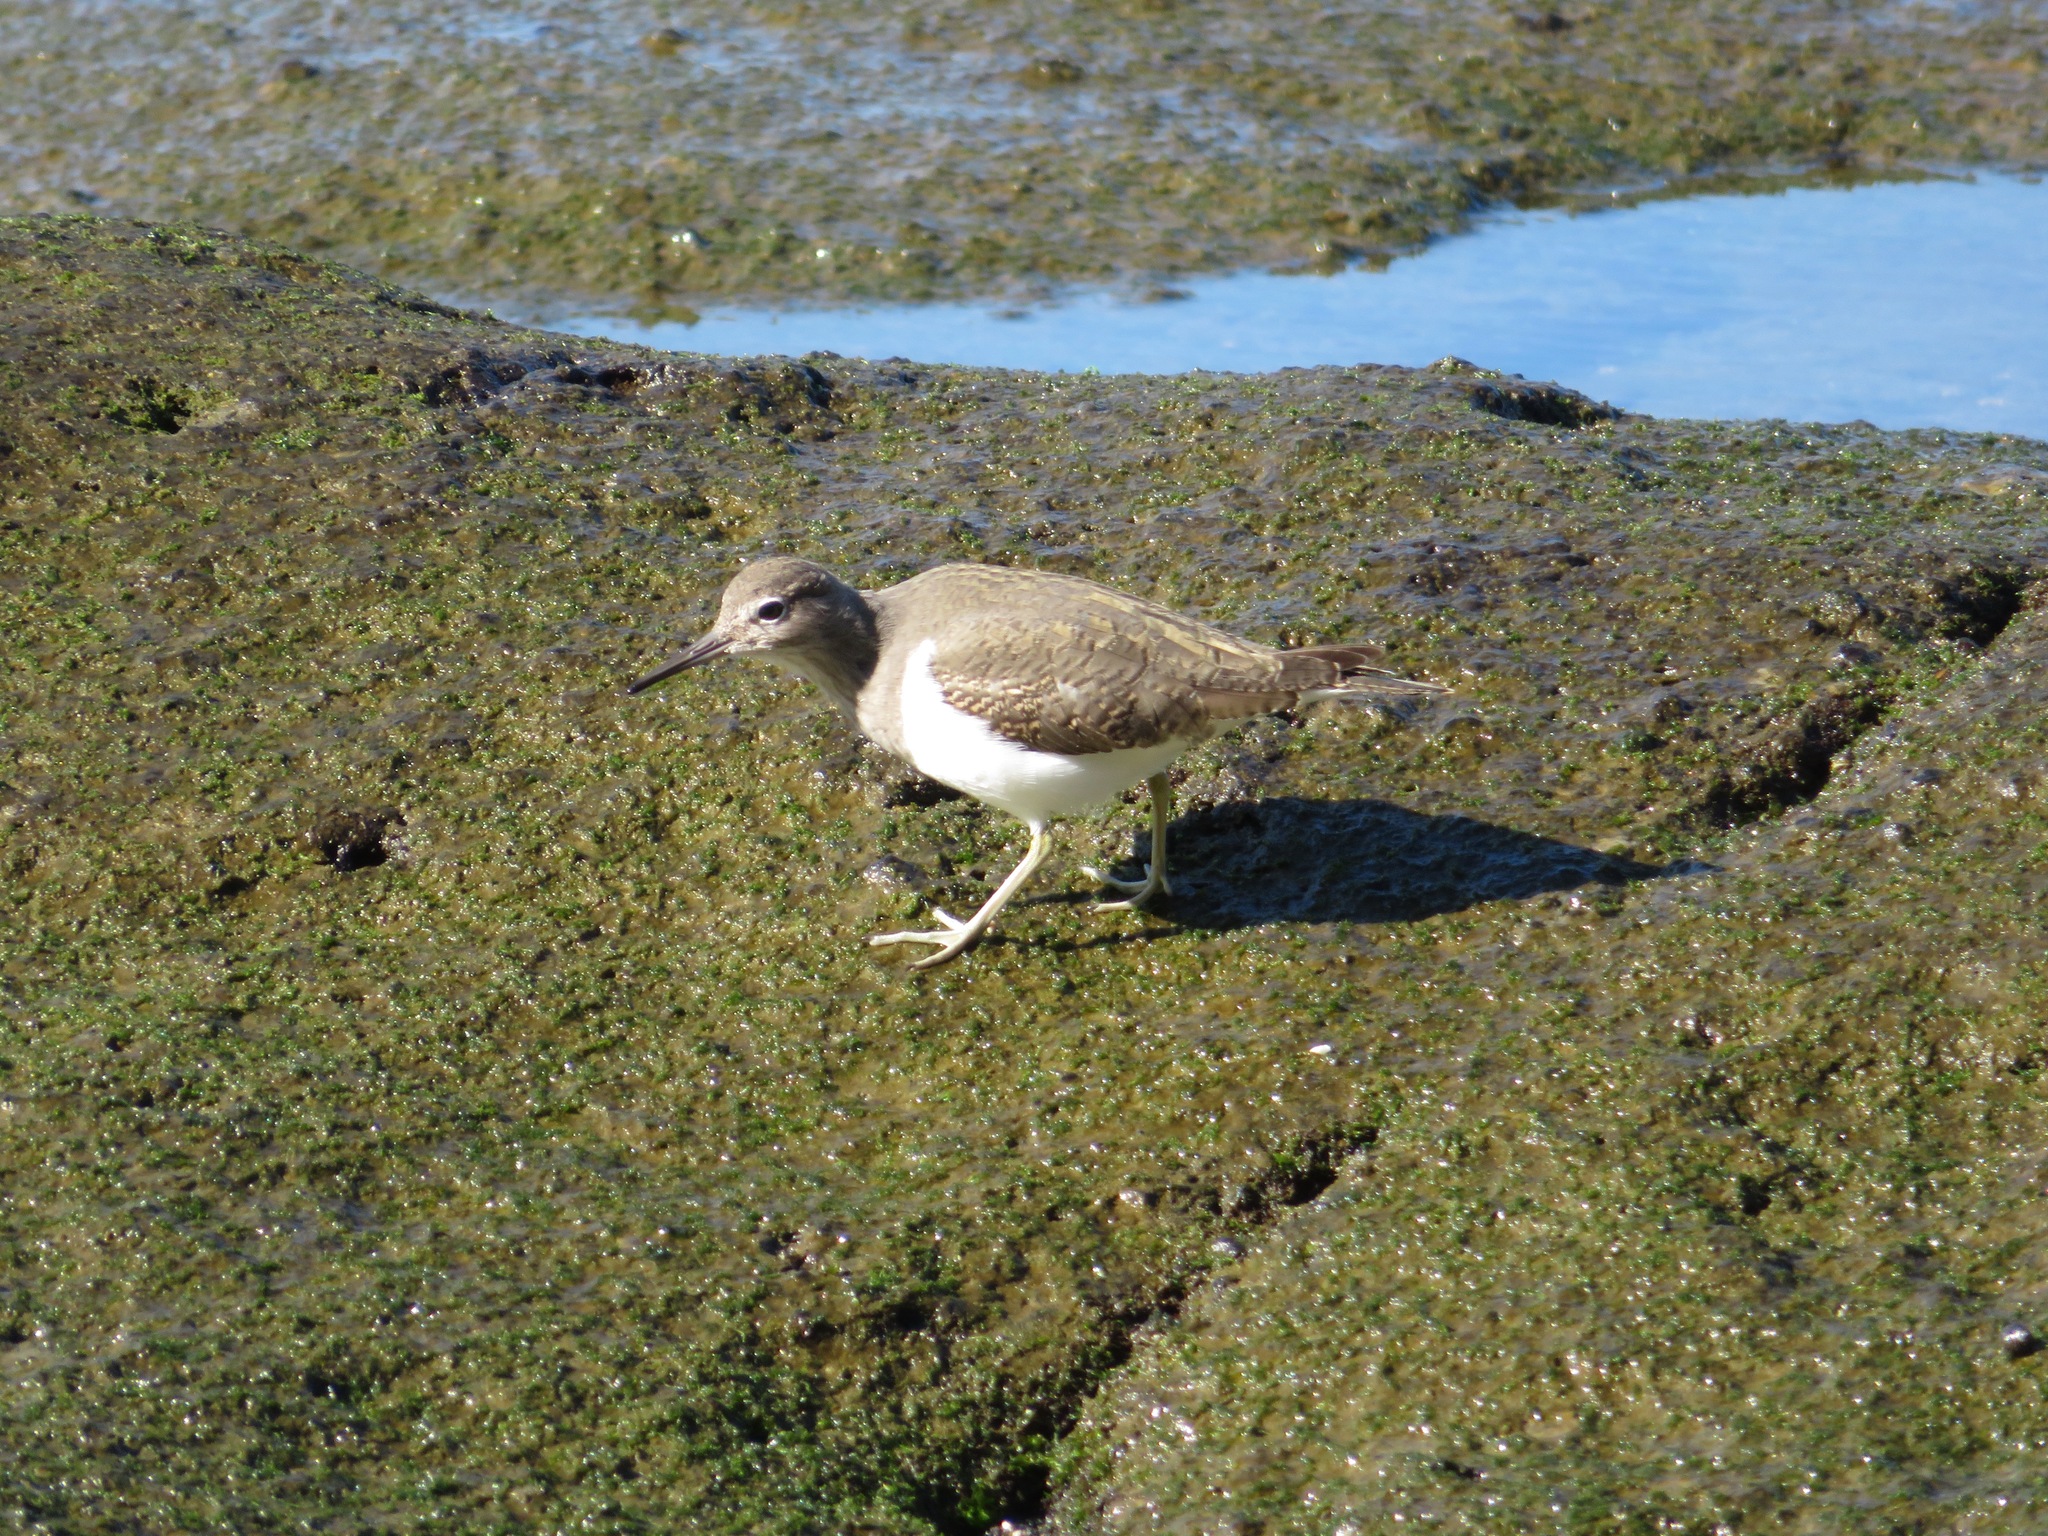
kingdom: Animalia
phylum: Chordata
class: Aves
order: Charadriiformes
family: Scolopacidae
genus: Actitis
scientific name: Actitis hypoleucos
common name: Common sandpiper
